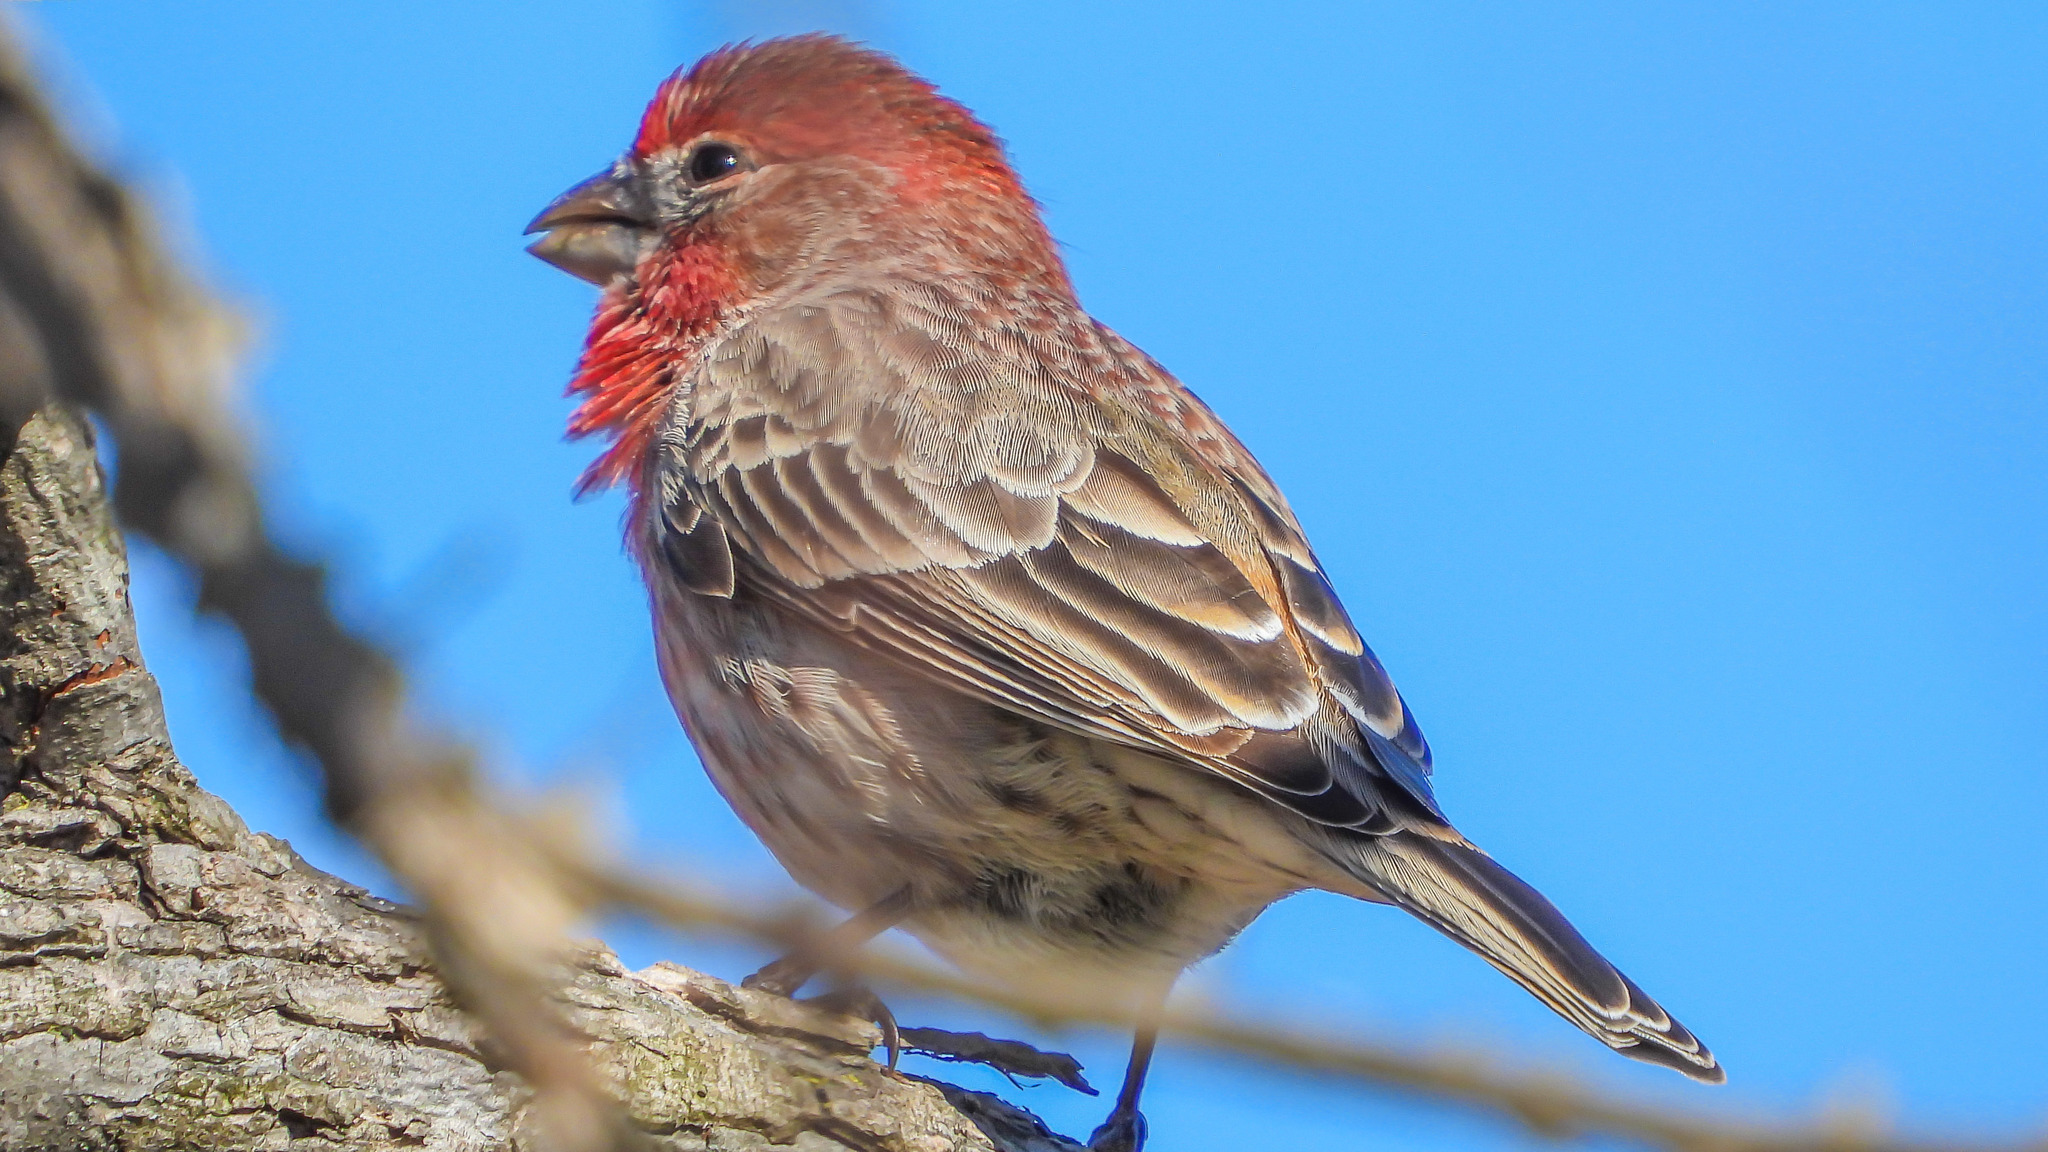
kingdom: Animalia
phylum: Chordata
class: Aves
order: Passeriformes
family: Fringillidae
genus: Haemorhous
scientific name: Haemorhous mexicanus
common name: House finch
